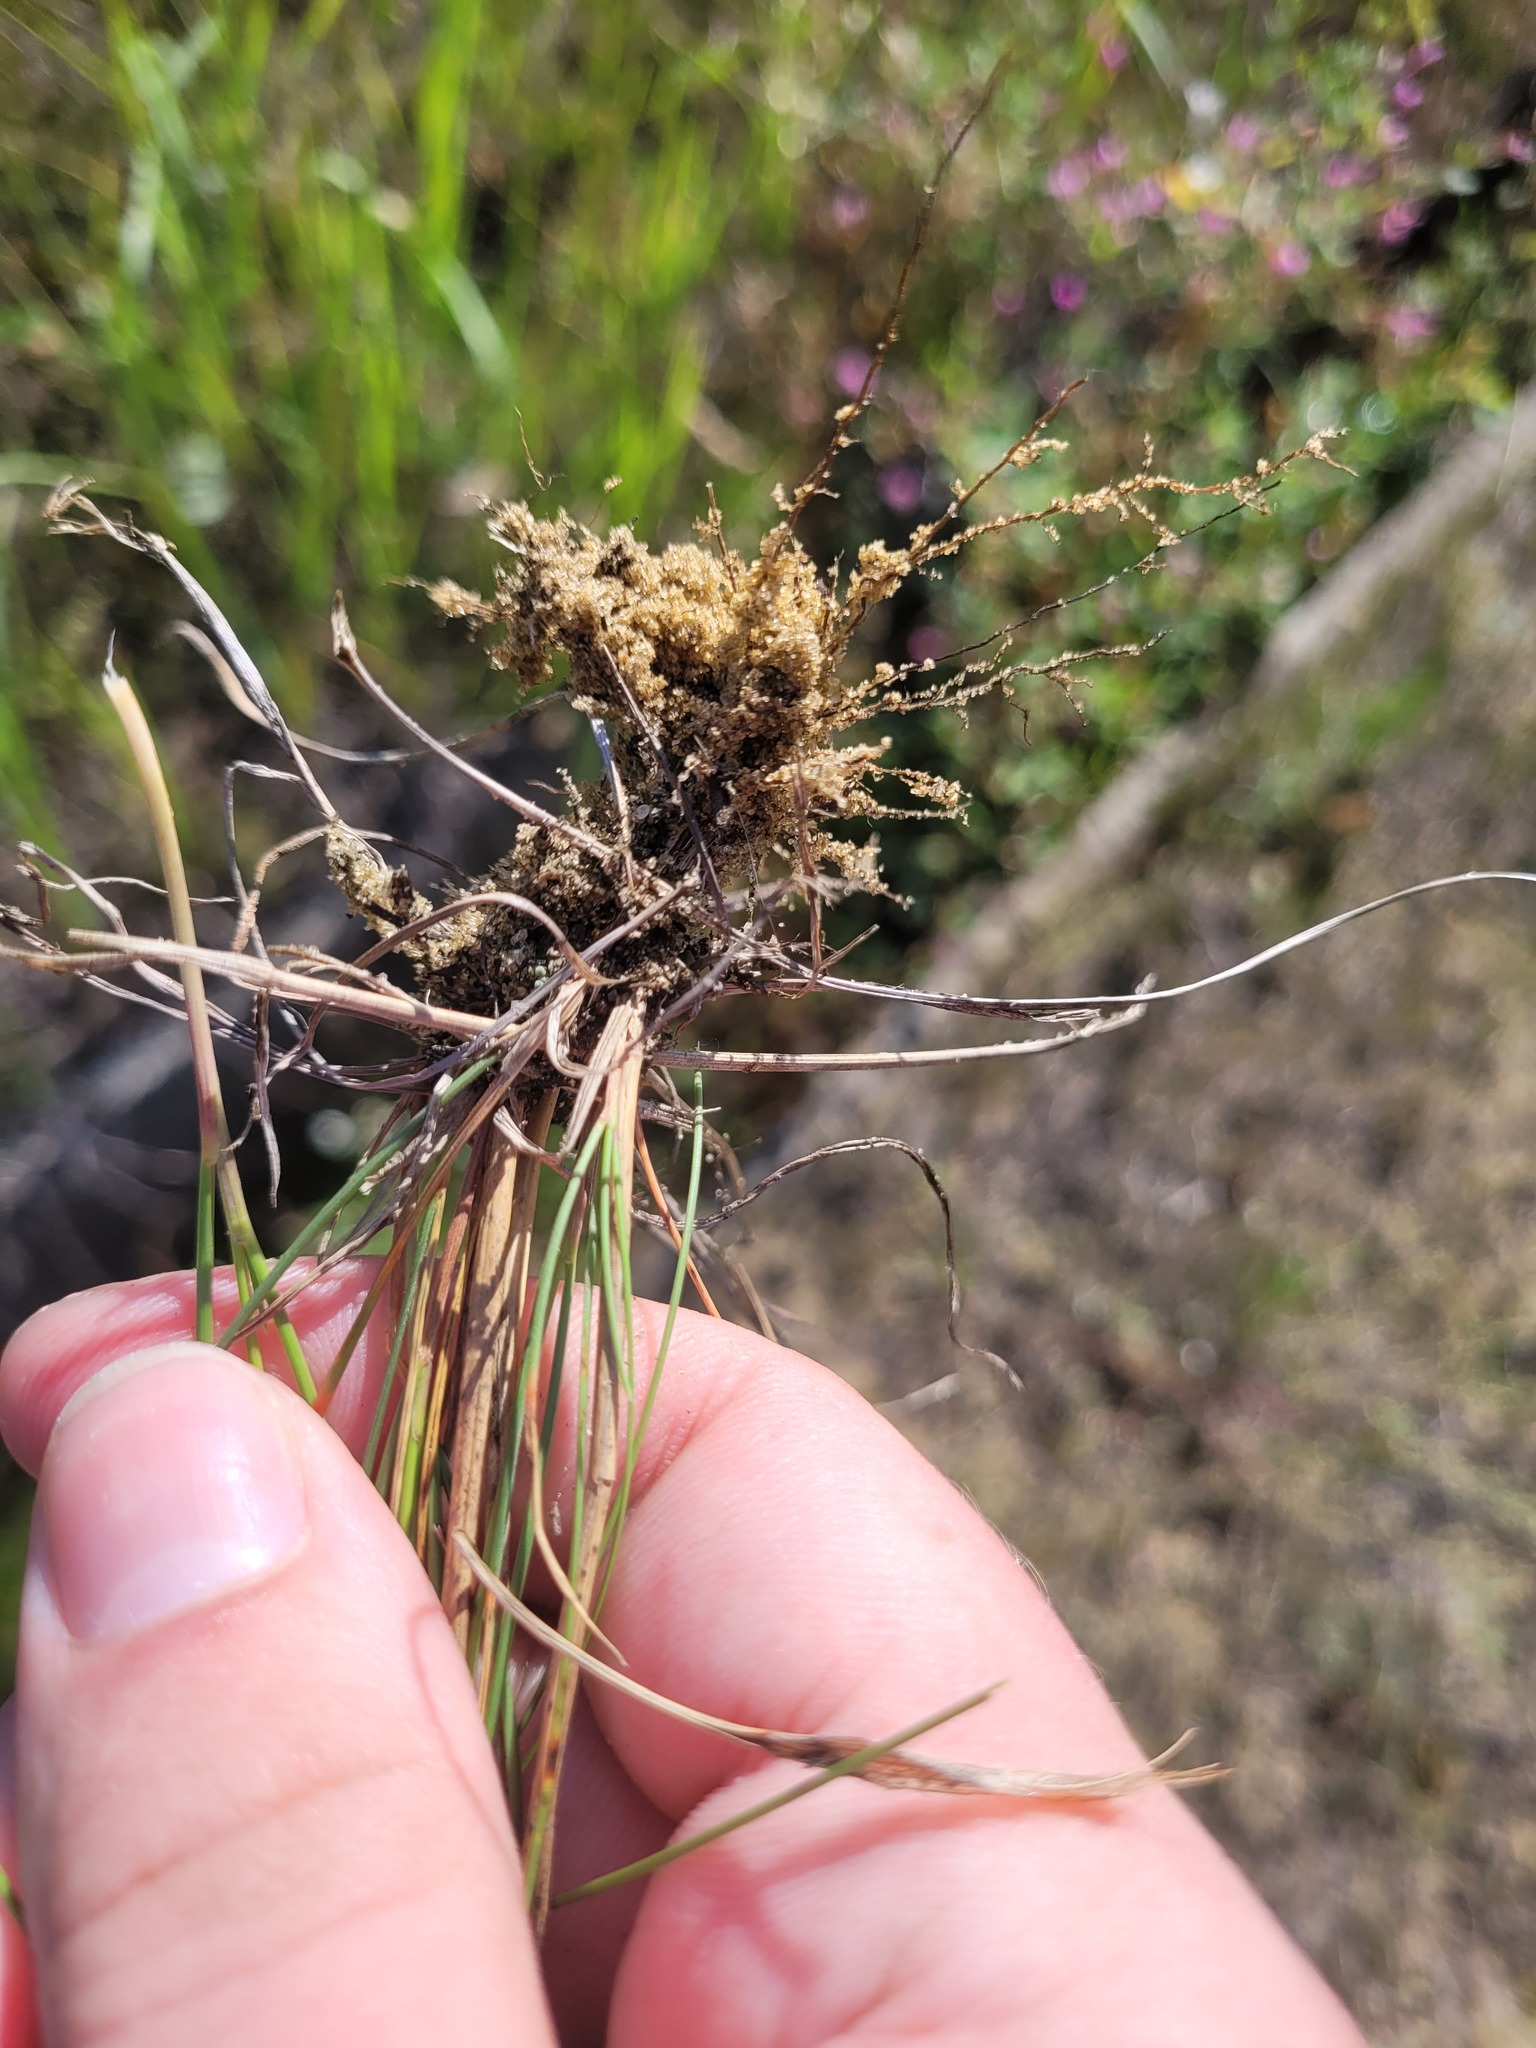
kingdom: Plantae
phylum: Tracheophyta
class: Liliopsida
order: Poales
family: Poaceae
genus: Festuca
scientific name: Festuca rubra
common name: Red fescue
